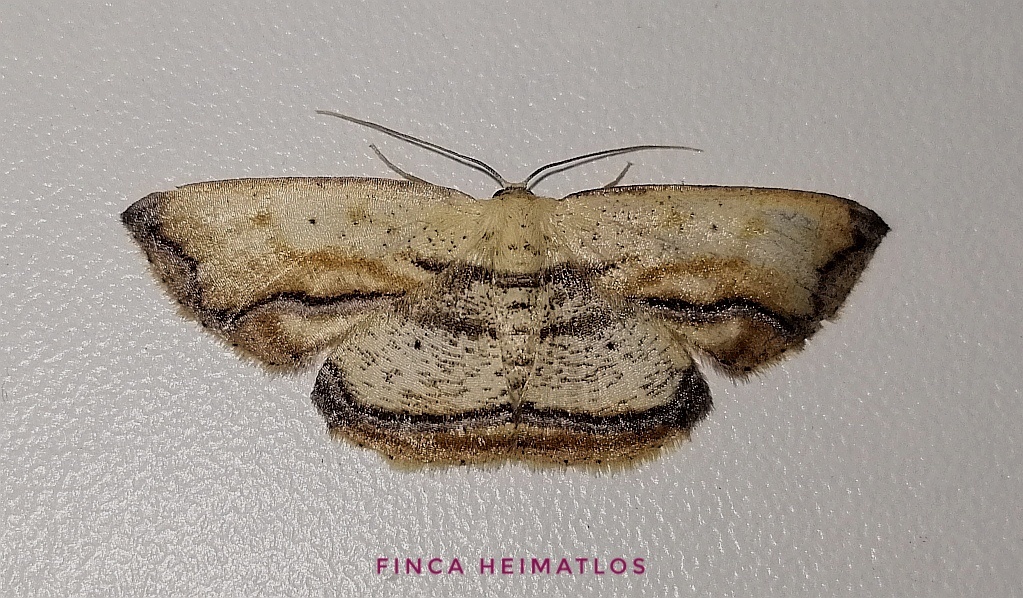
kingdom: Animalia
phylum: Arthropoda
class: Insecta
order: Lepidoptera
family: Geometridae
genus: Campatonema
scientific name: Campatonema marginata
